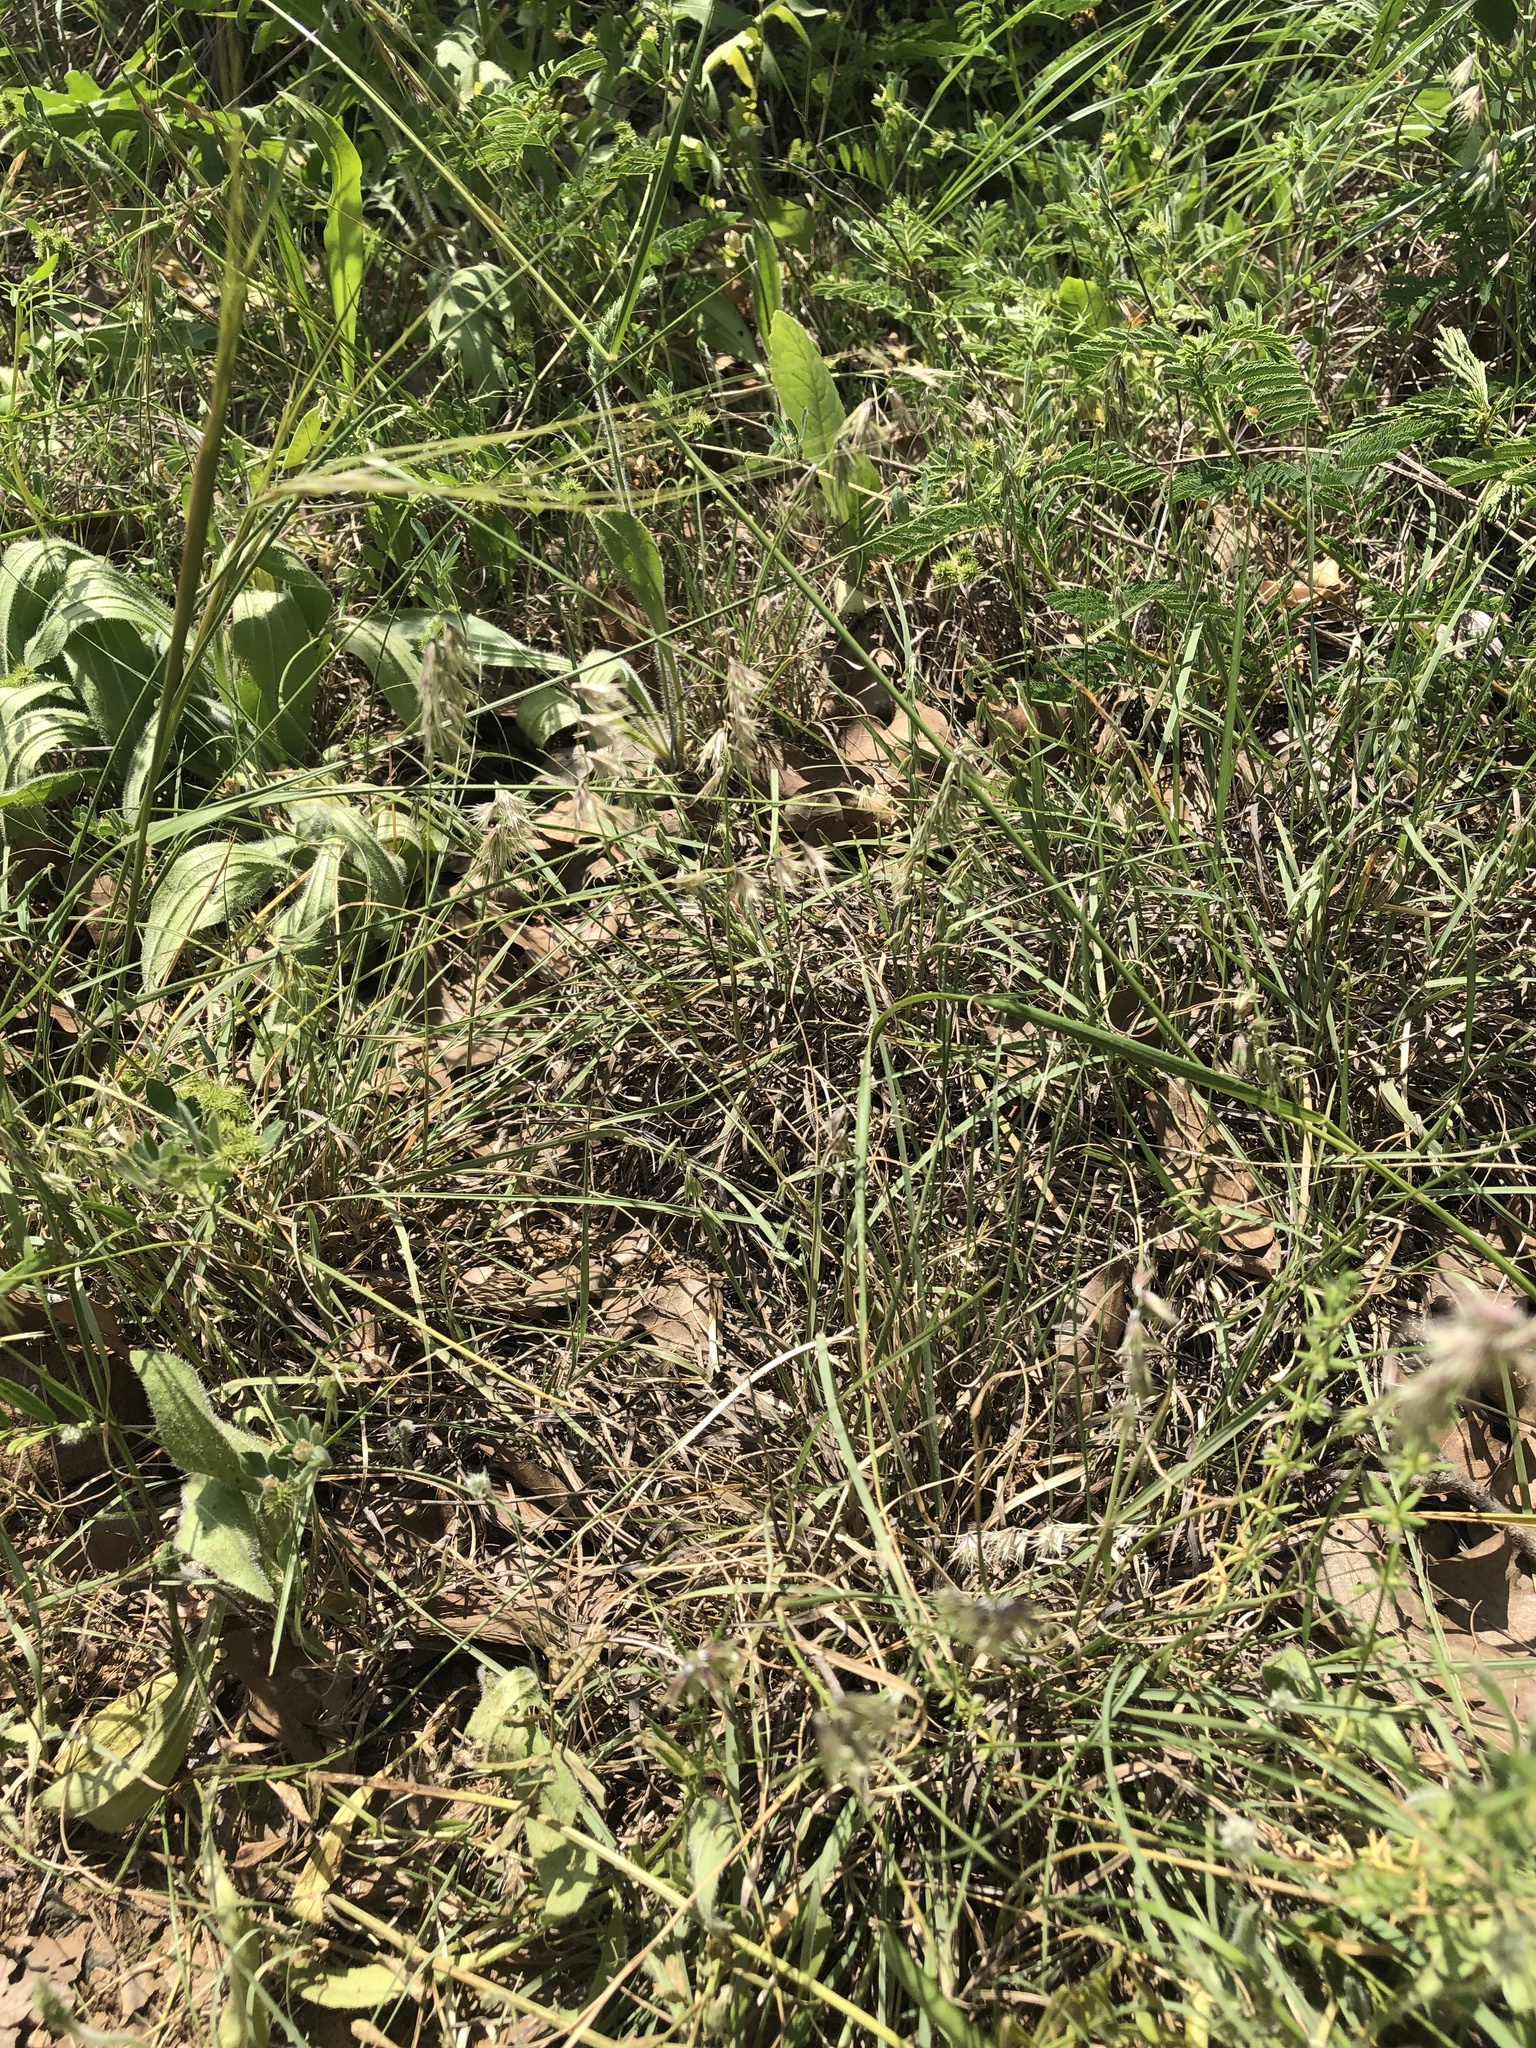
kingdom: Plantae
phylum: Tracheophyta
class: Liliopsida
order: Poales
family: Poaceae
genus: Bouteloua
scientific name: Bouteloua rigidiseta
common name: Texas grama
